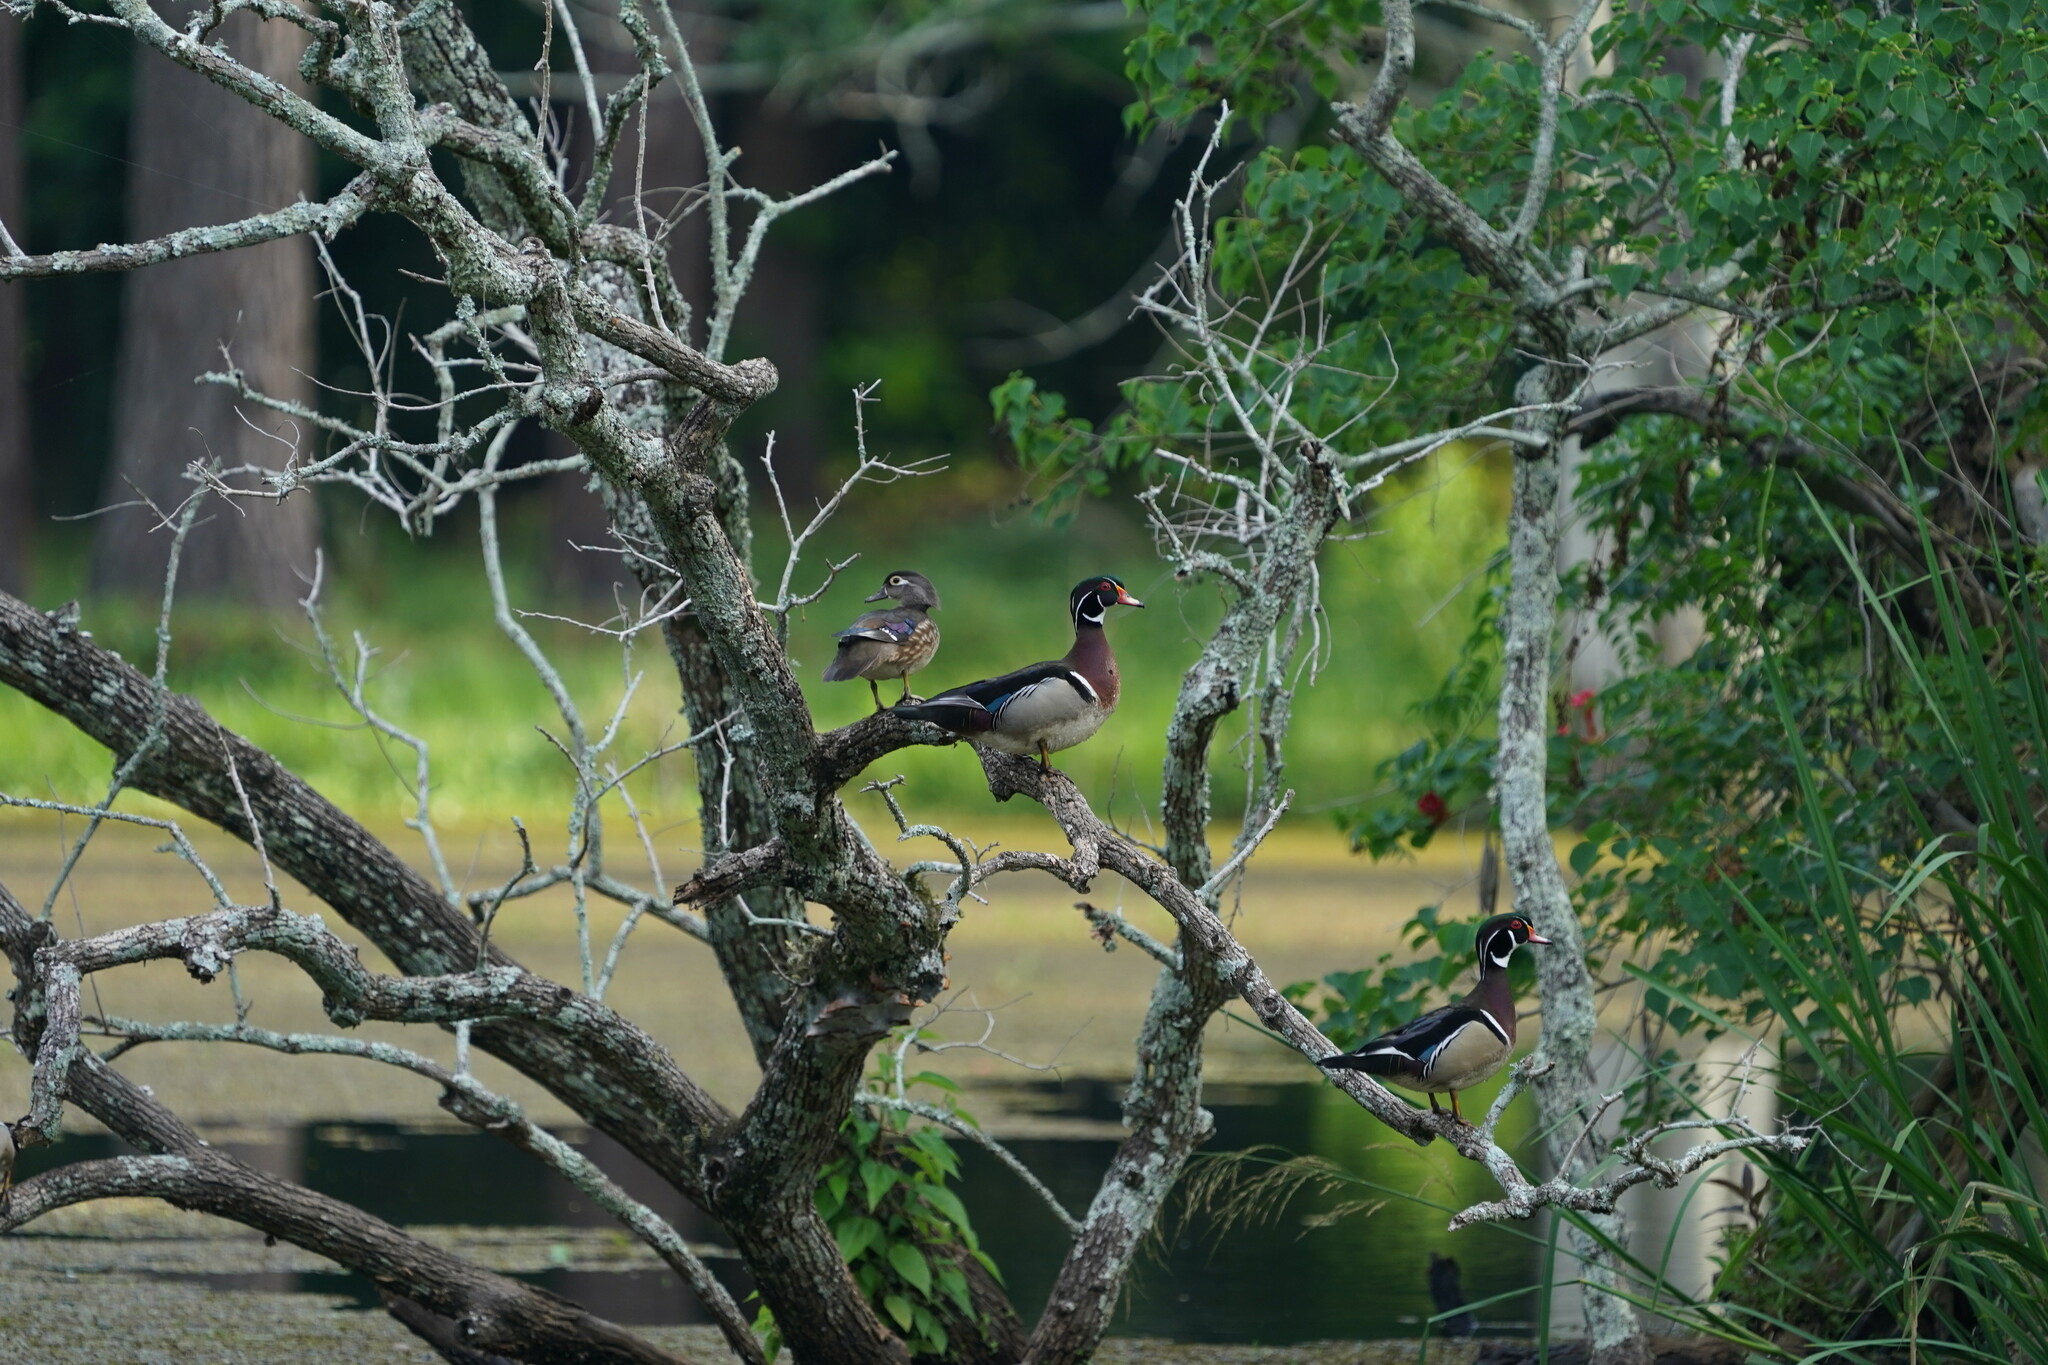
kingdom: Animalia
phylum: Chordata
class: Aves
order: Anseriformes
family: Anatidae
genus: Aix
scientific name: Aix sponsa
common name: Wood duck
